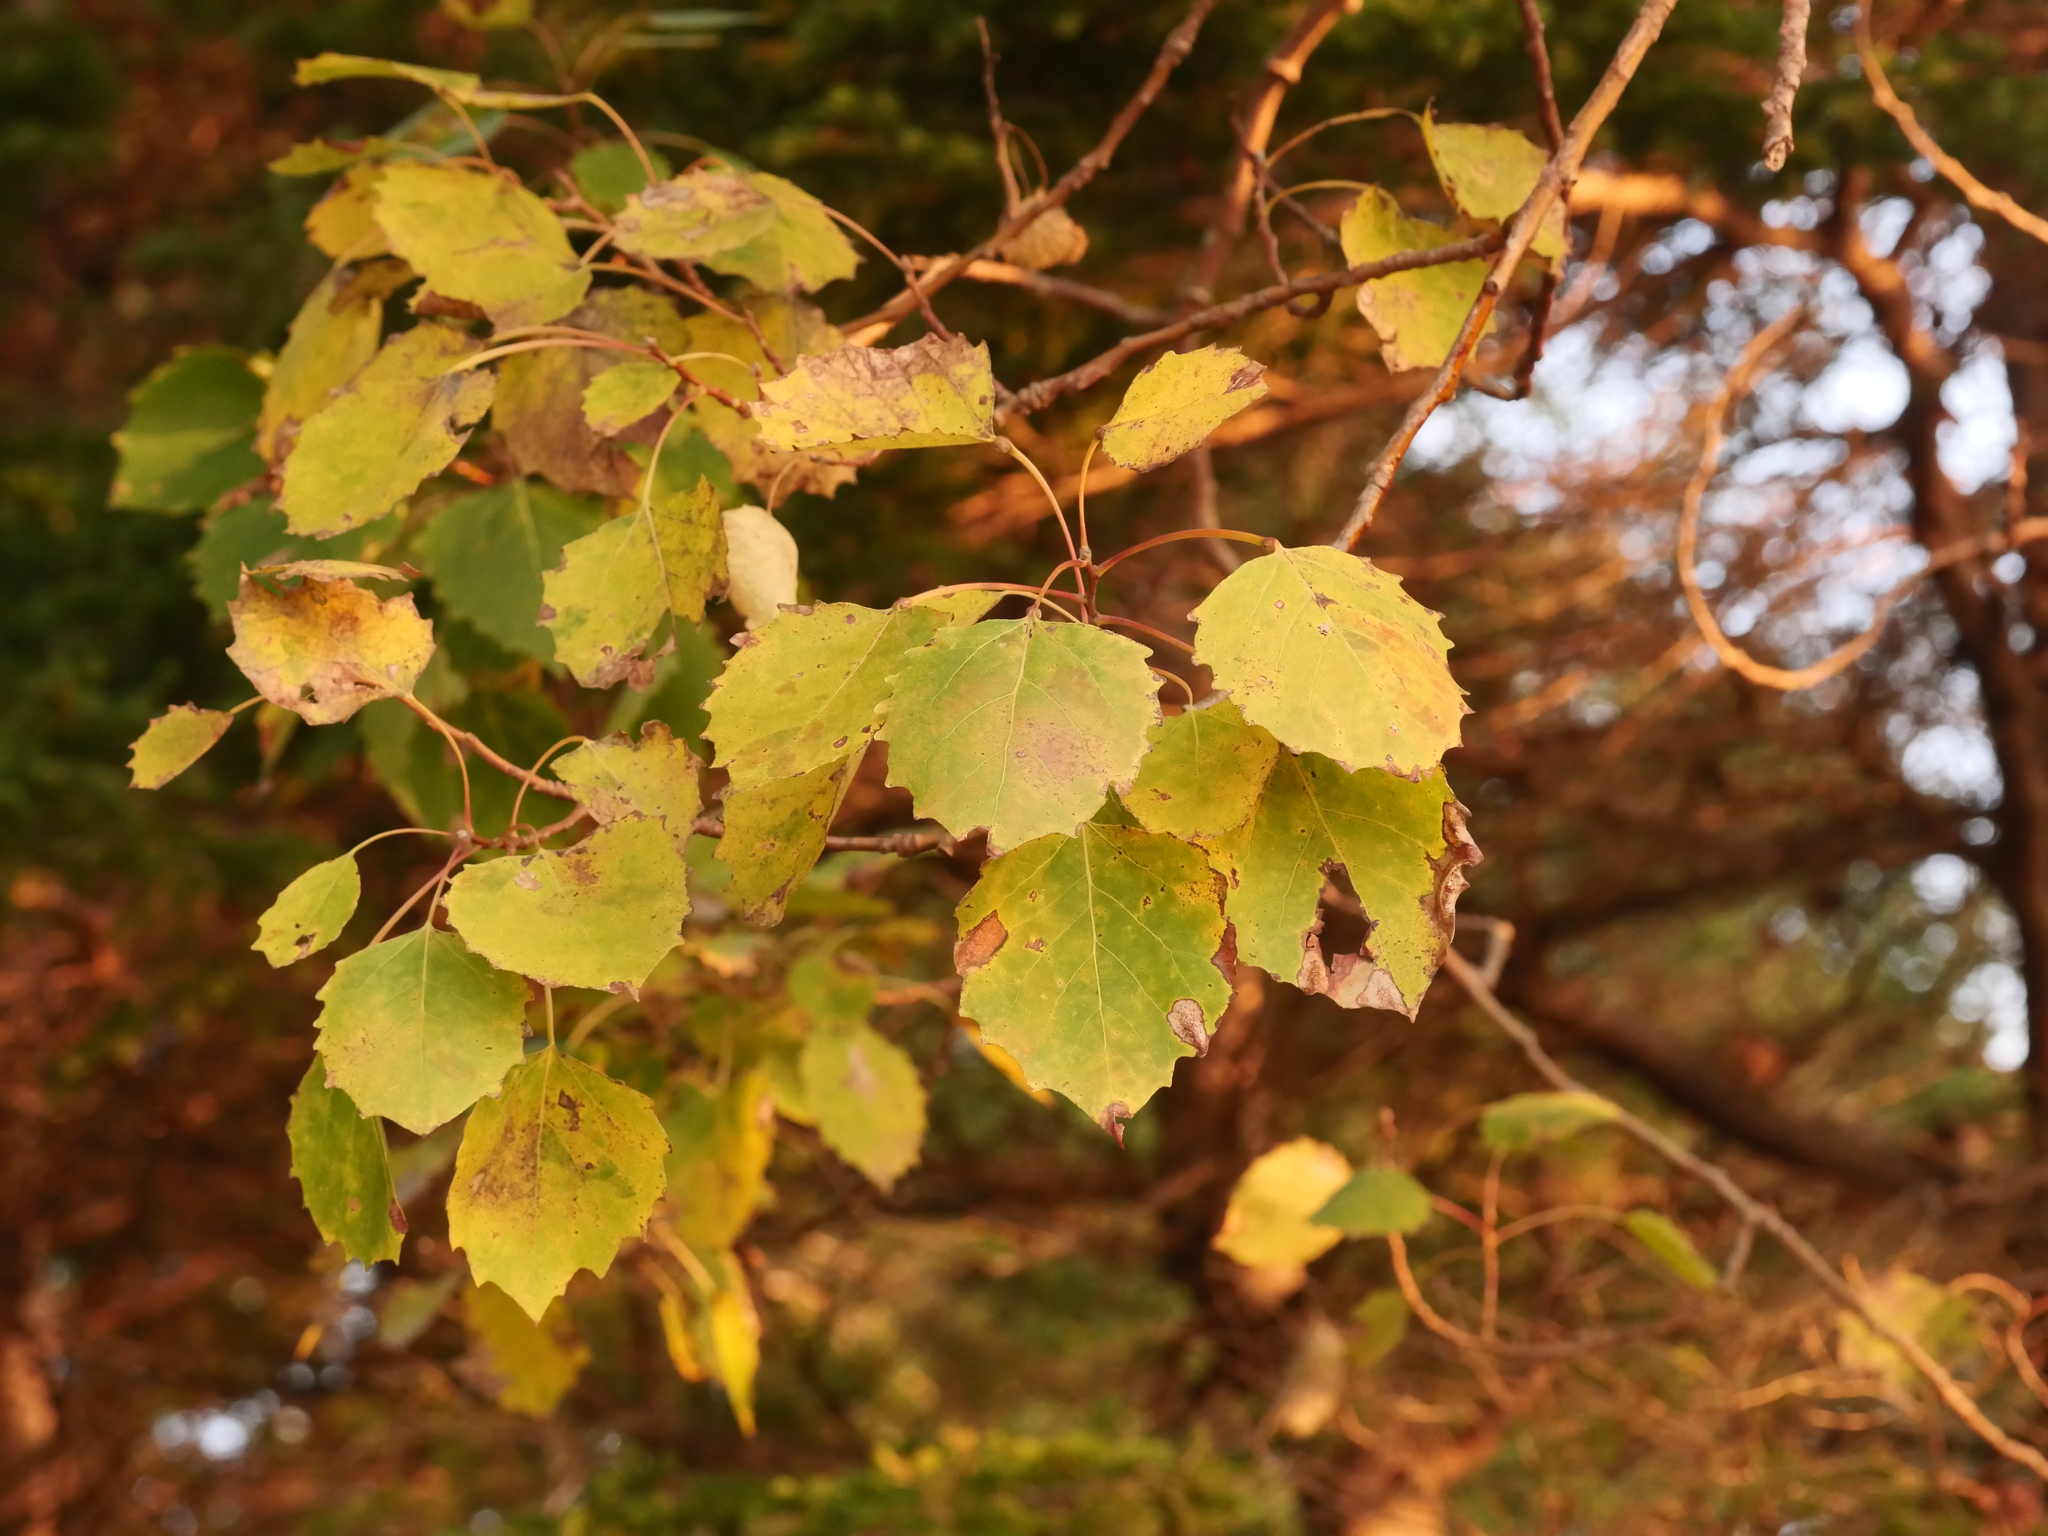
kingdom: Plantae
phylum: Tracheophyta
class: Magnoliopsida
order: Malpighiales
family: Salicaceae
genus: Populus
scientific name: Populus grandidentata
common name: Bigtooth aspen
